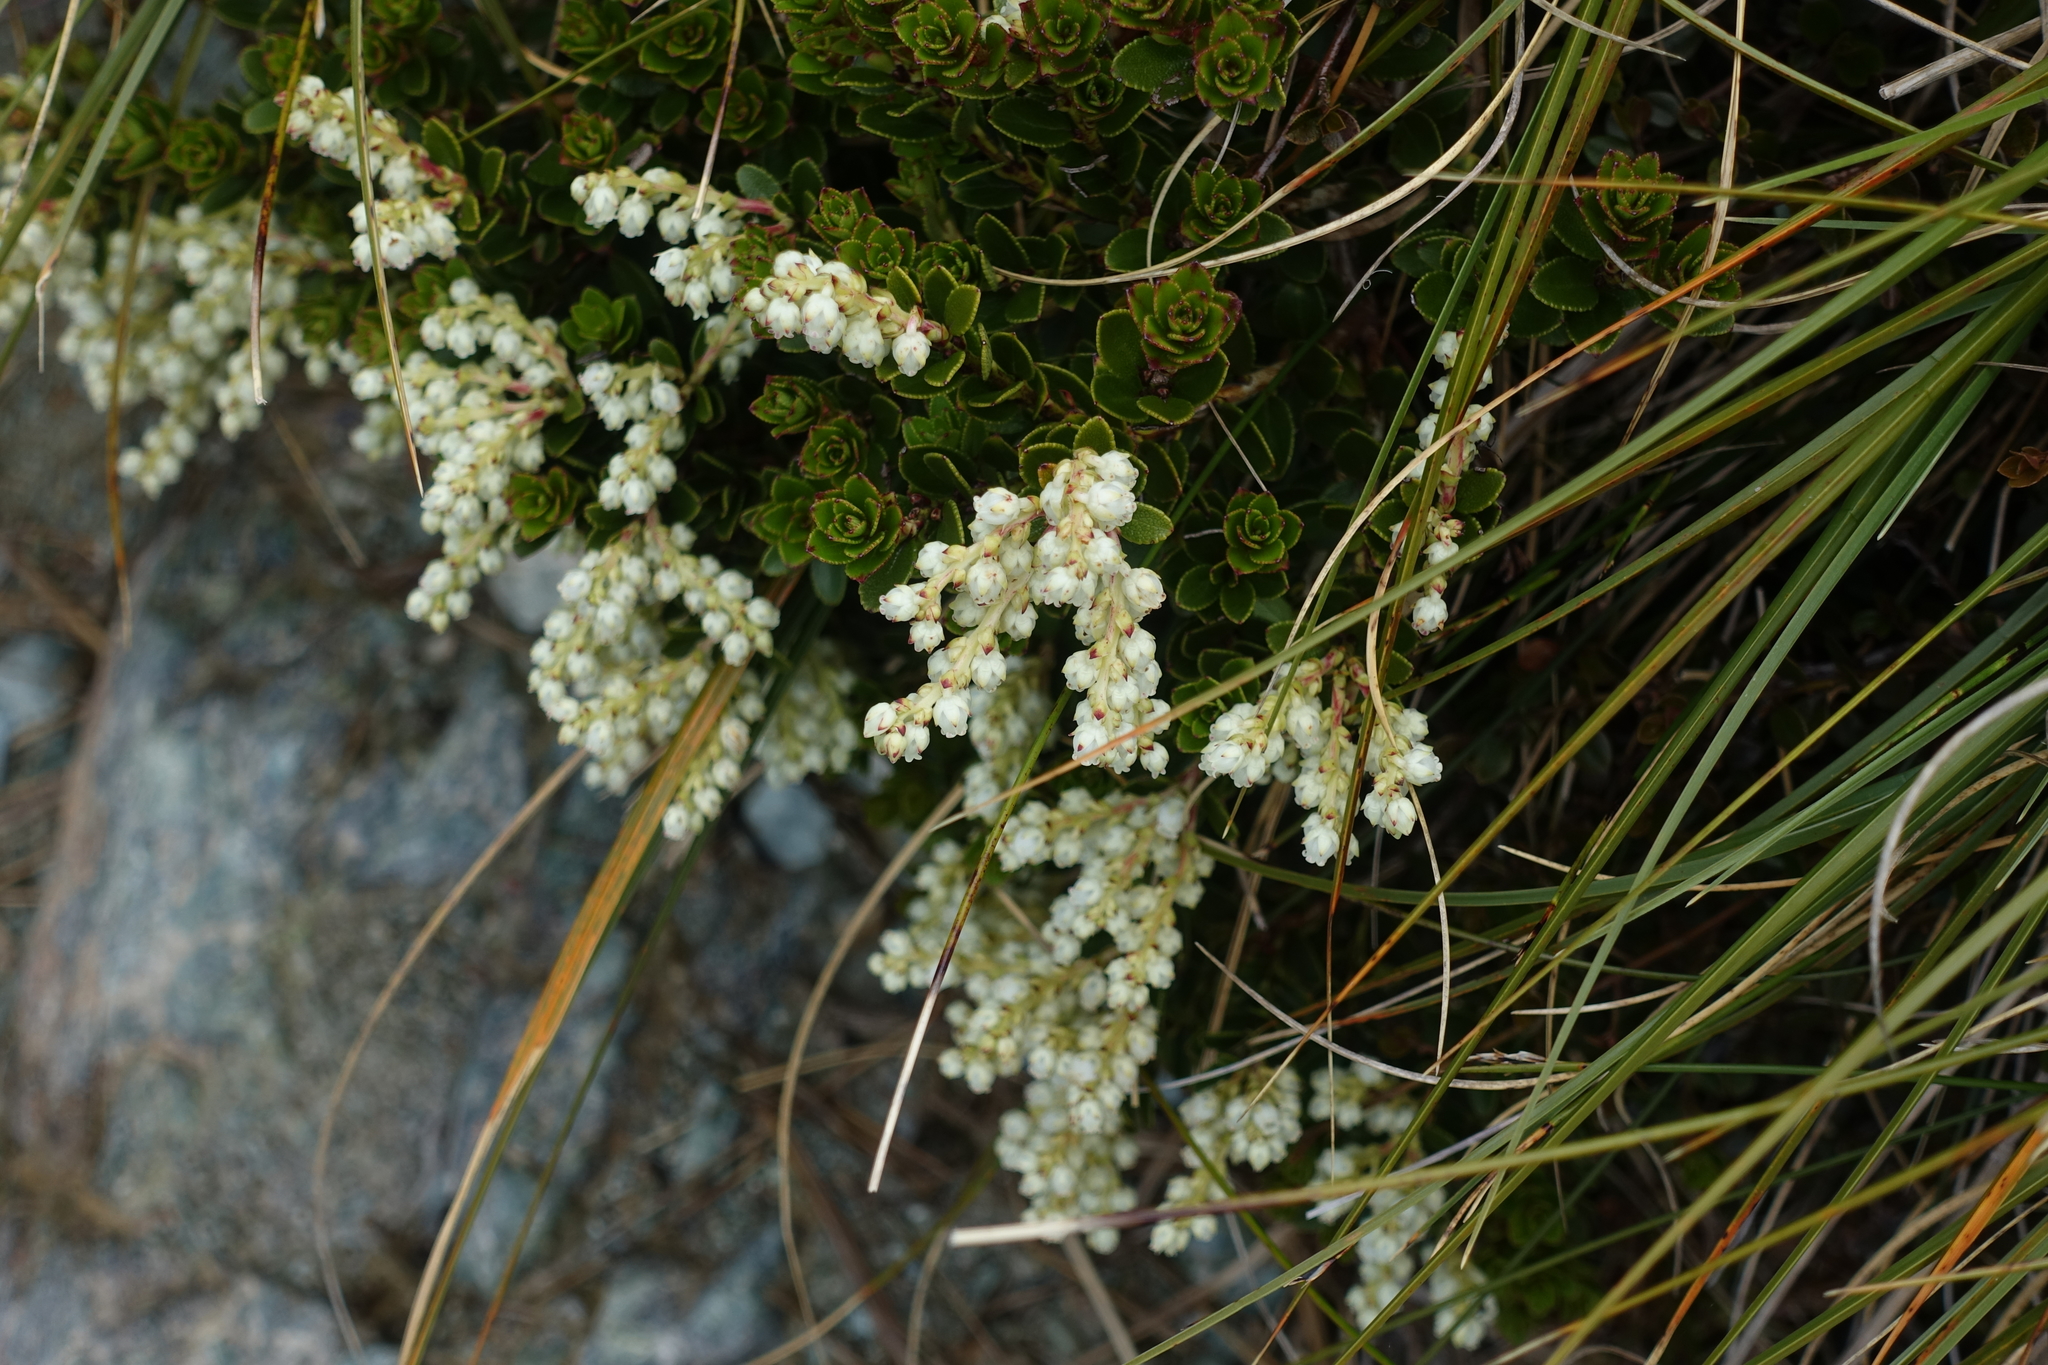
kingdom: Plantae
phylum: Tracheophyta
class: Magnoliopsida
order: Ericales
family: Ericaceae
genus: Gaultheria
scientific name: Gaultheria crassa
